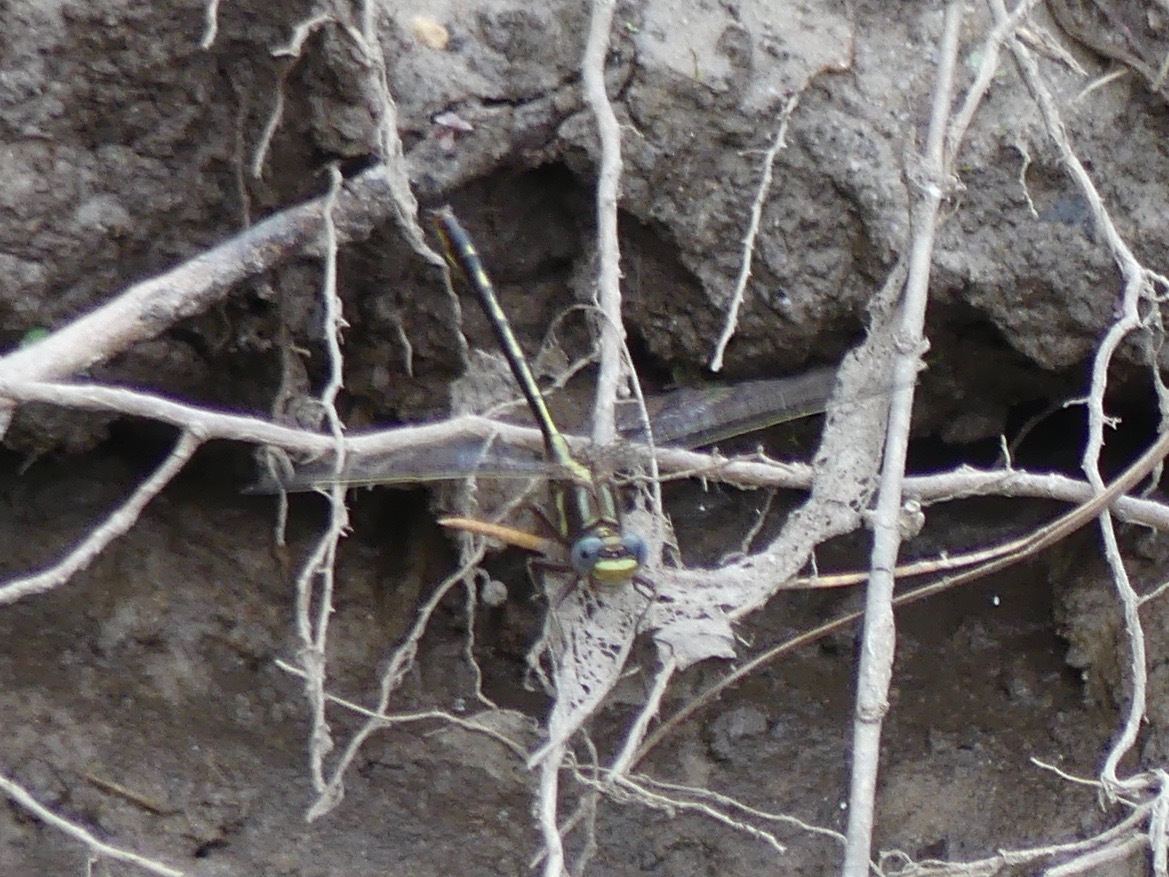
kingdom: Animalia
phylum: Arthropoda
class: Insecta
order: Odonata
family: Gomphidae
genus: Phanogomphus
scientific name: Phanogomphus lividus
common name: Ashy clubtail
